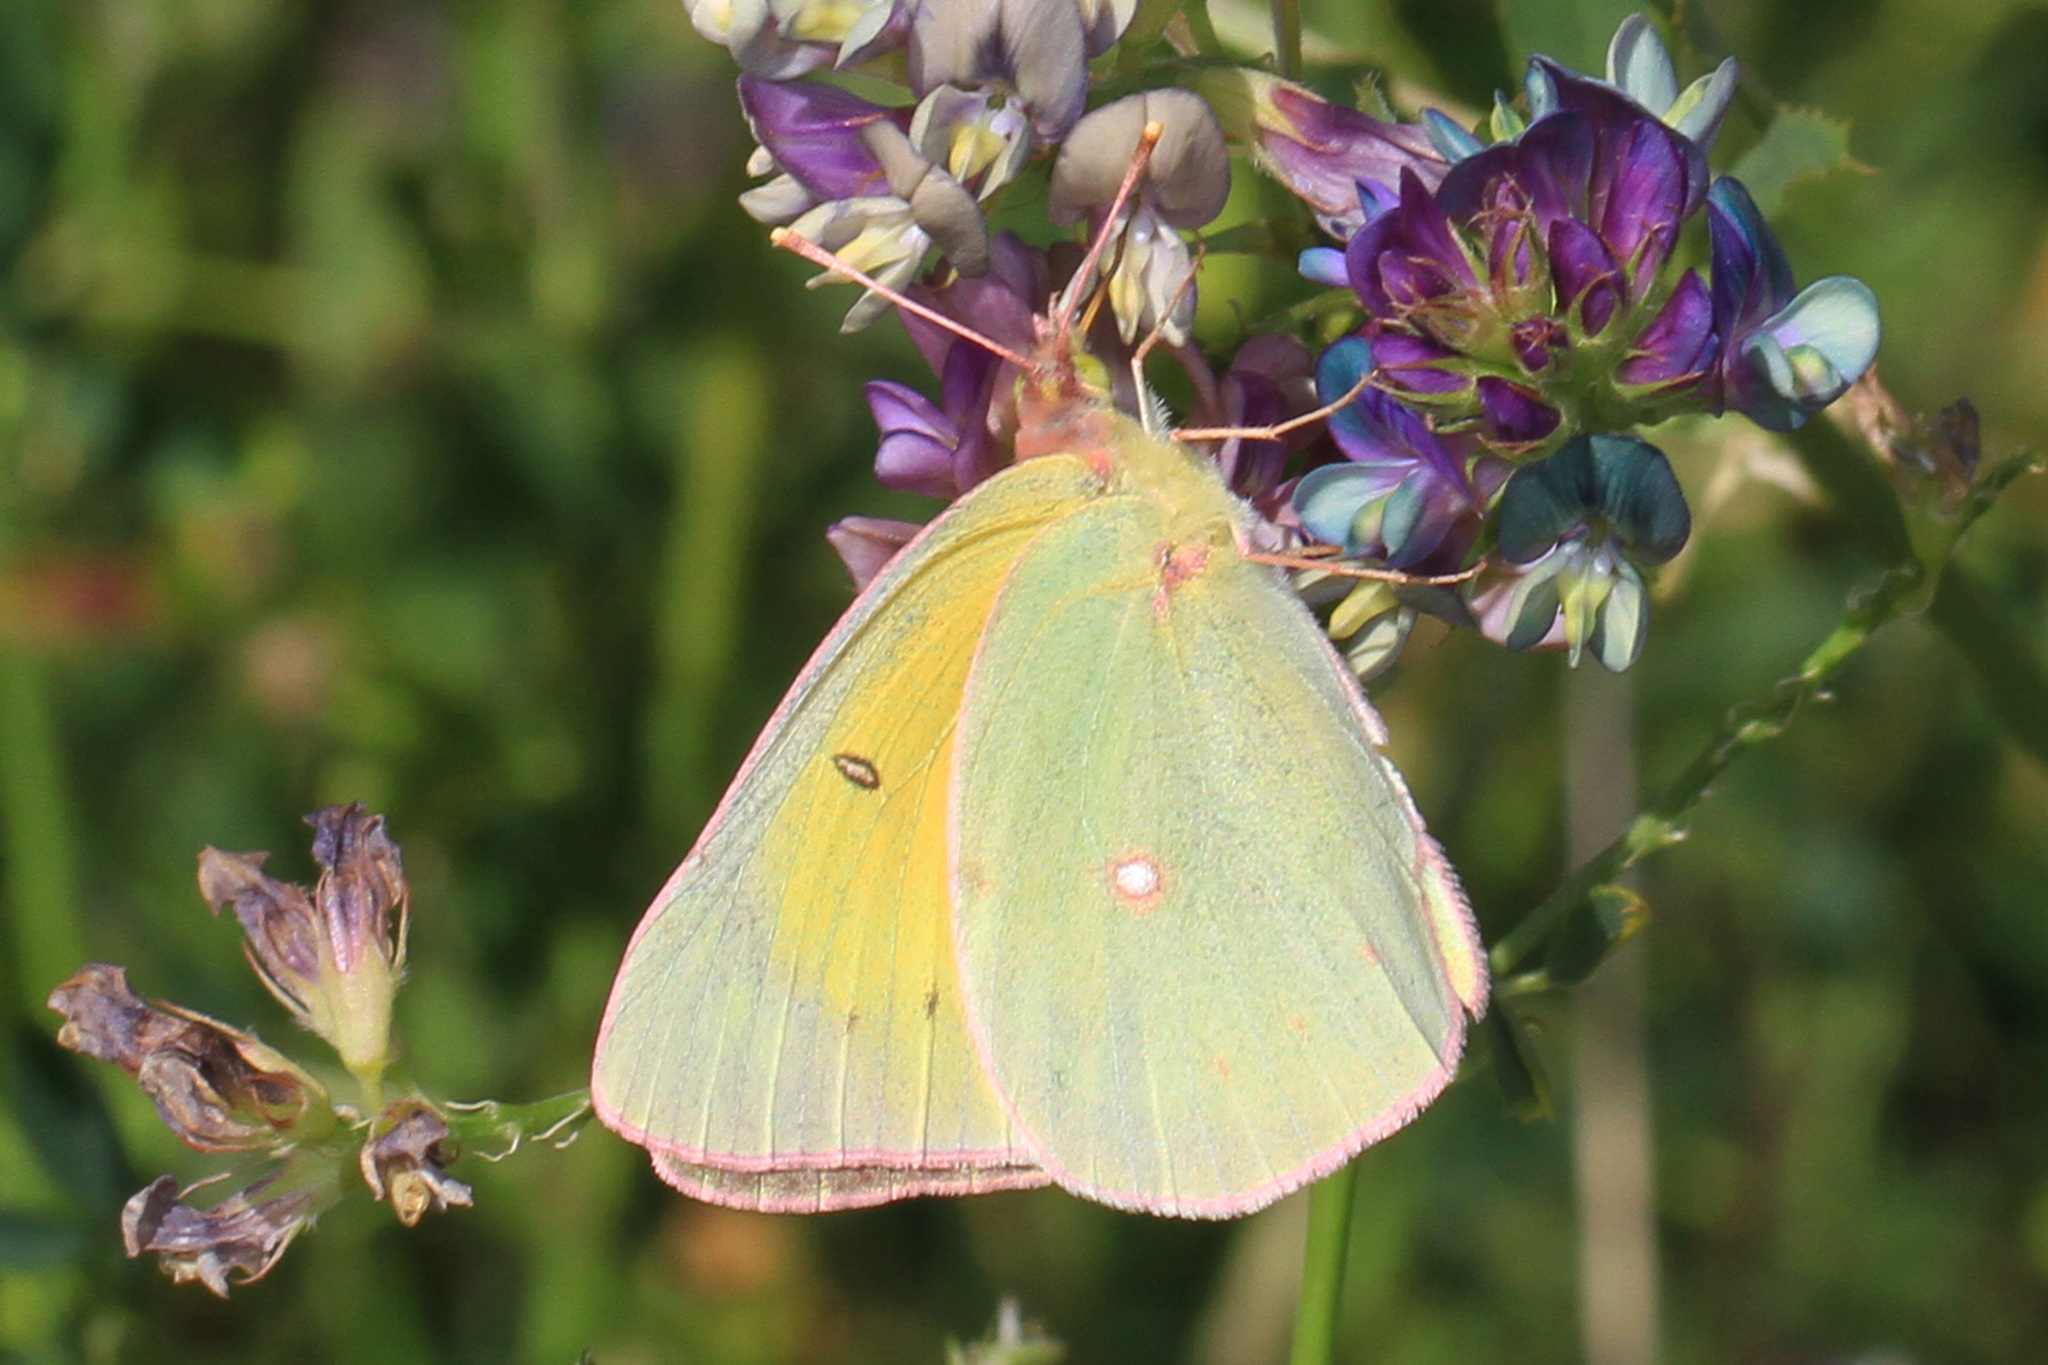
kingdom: Animalia
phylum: Arthropoda
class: Insecta
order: Lepidoptera
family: Pieridae
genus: Colias
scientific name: Colias christina
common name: Christina sulphur
